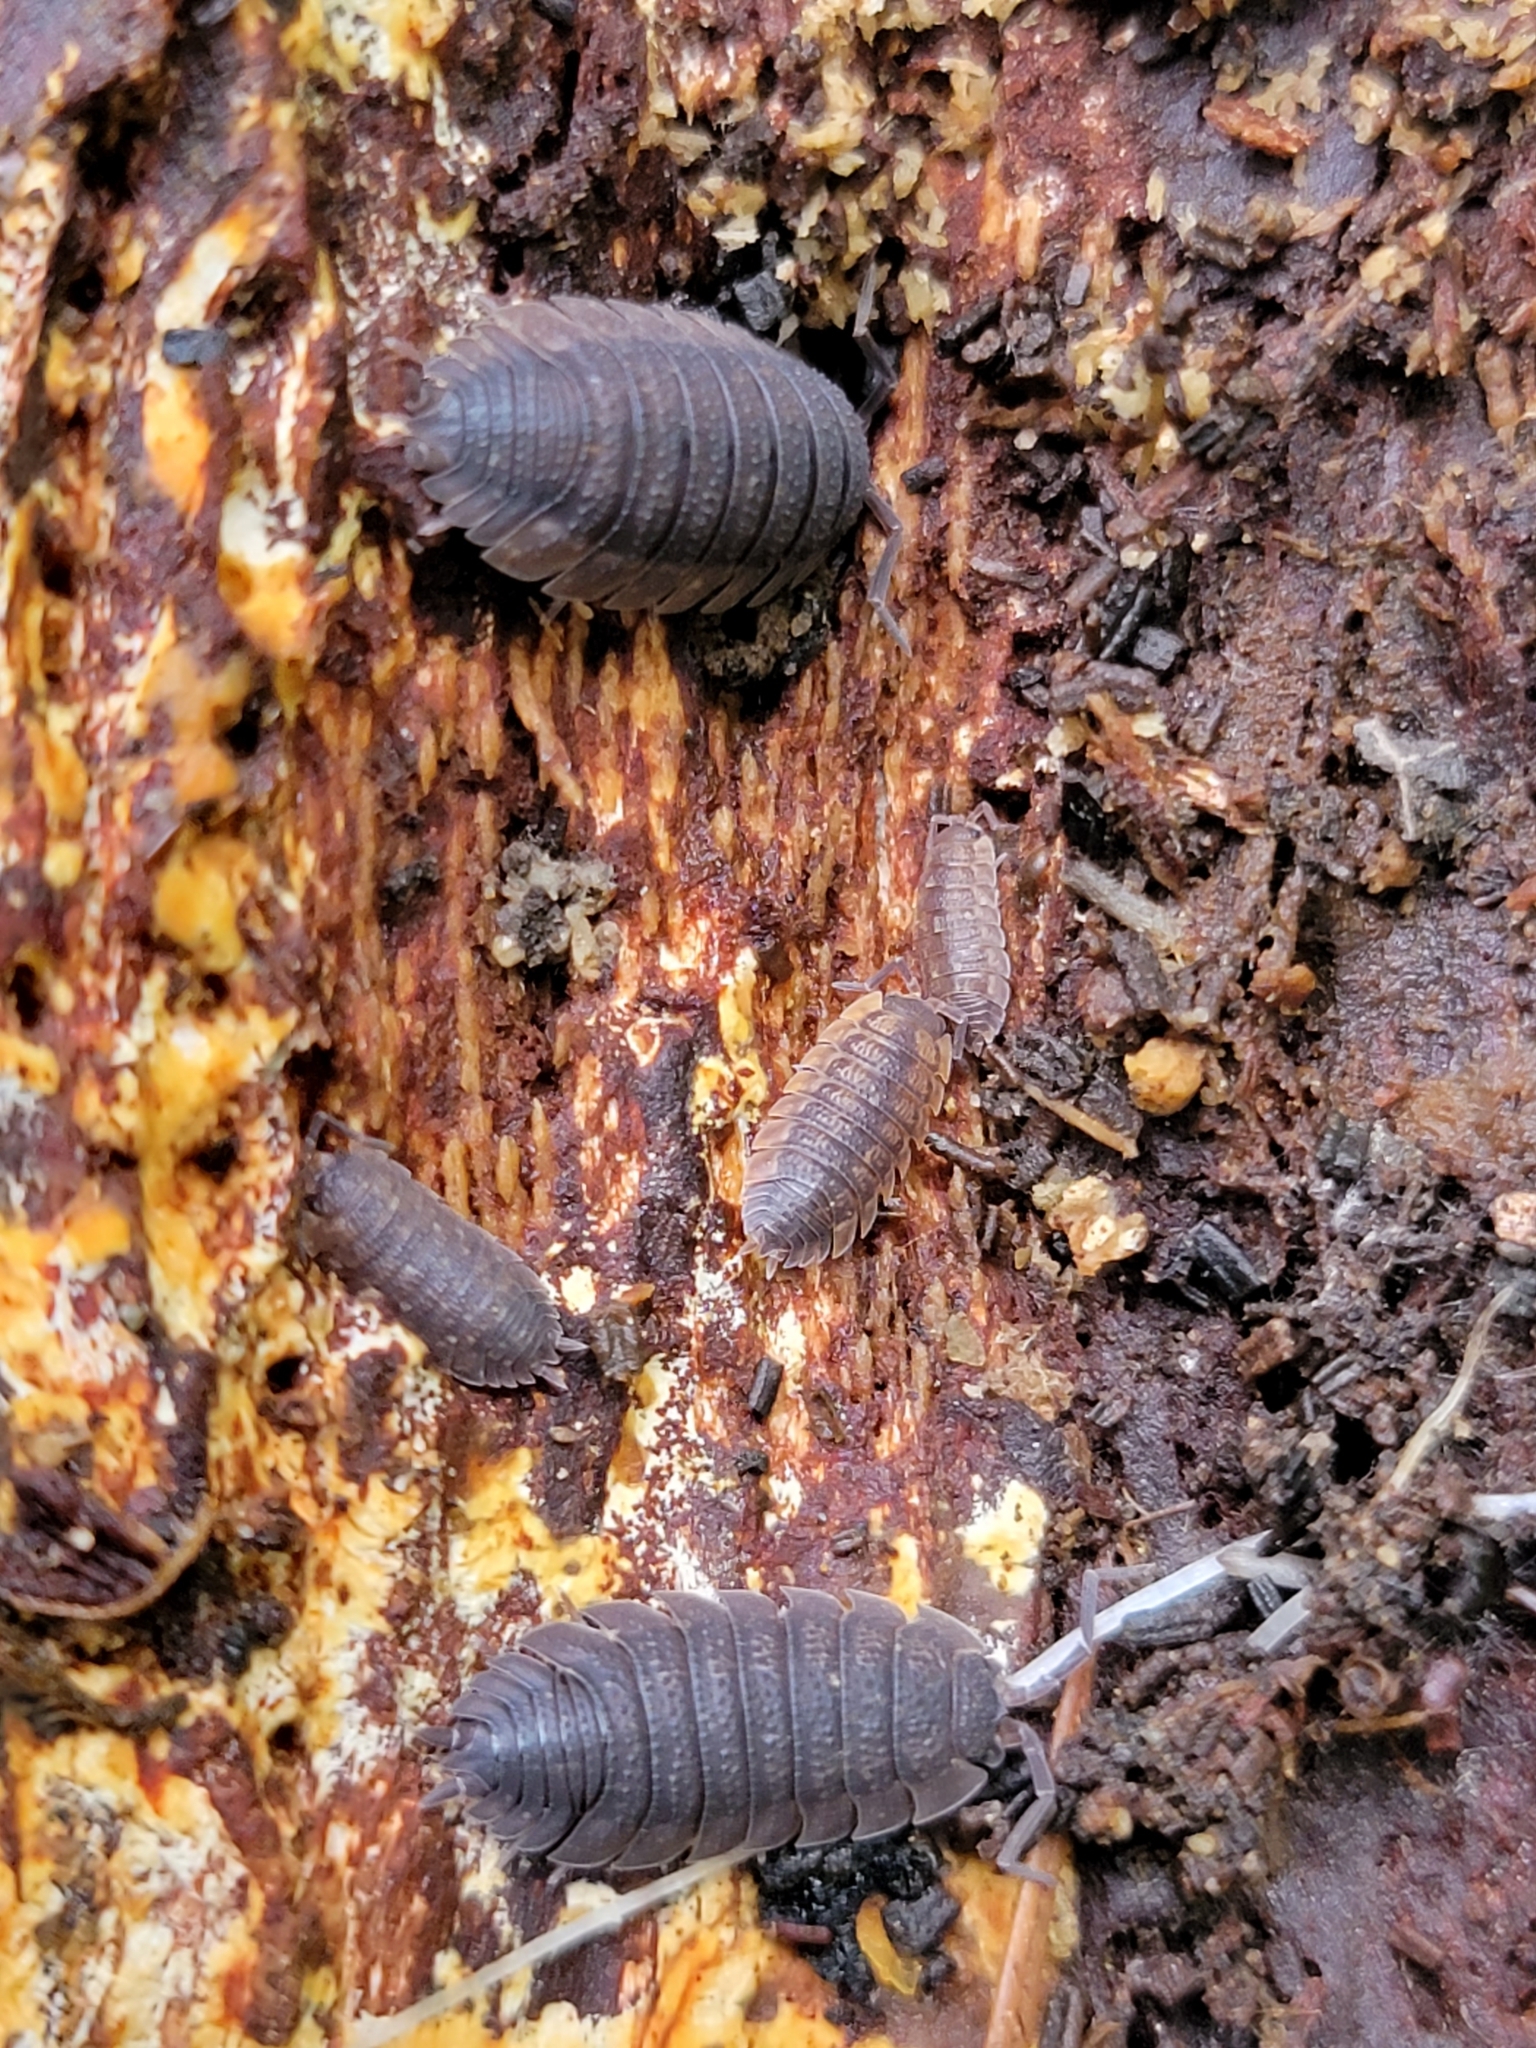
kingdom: Animalia
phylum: Arthropoda
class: Malacostraca
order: Isopoda
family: Porcellionidae
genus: Porcellio
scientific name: Porcellio scaber
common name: Common rough woodlouse
